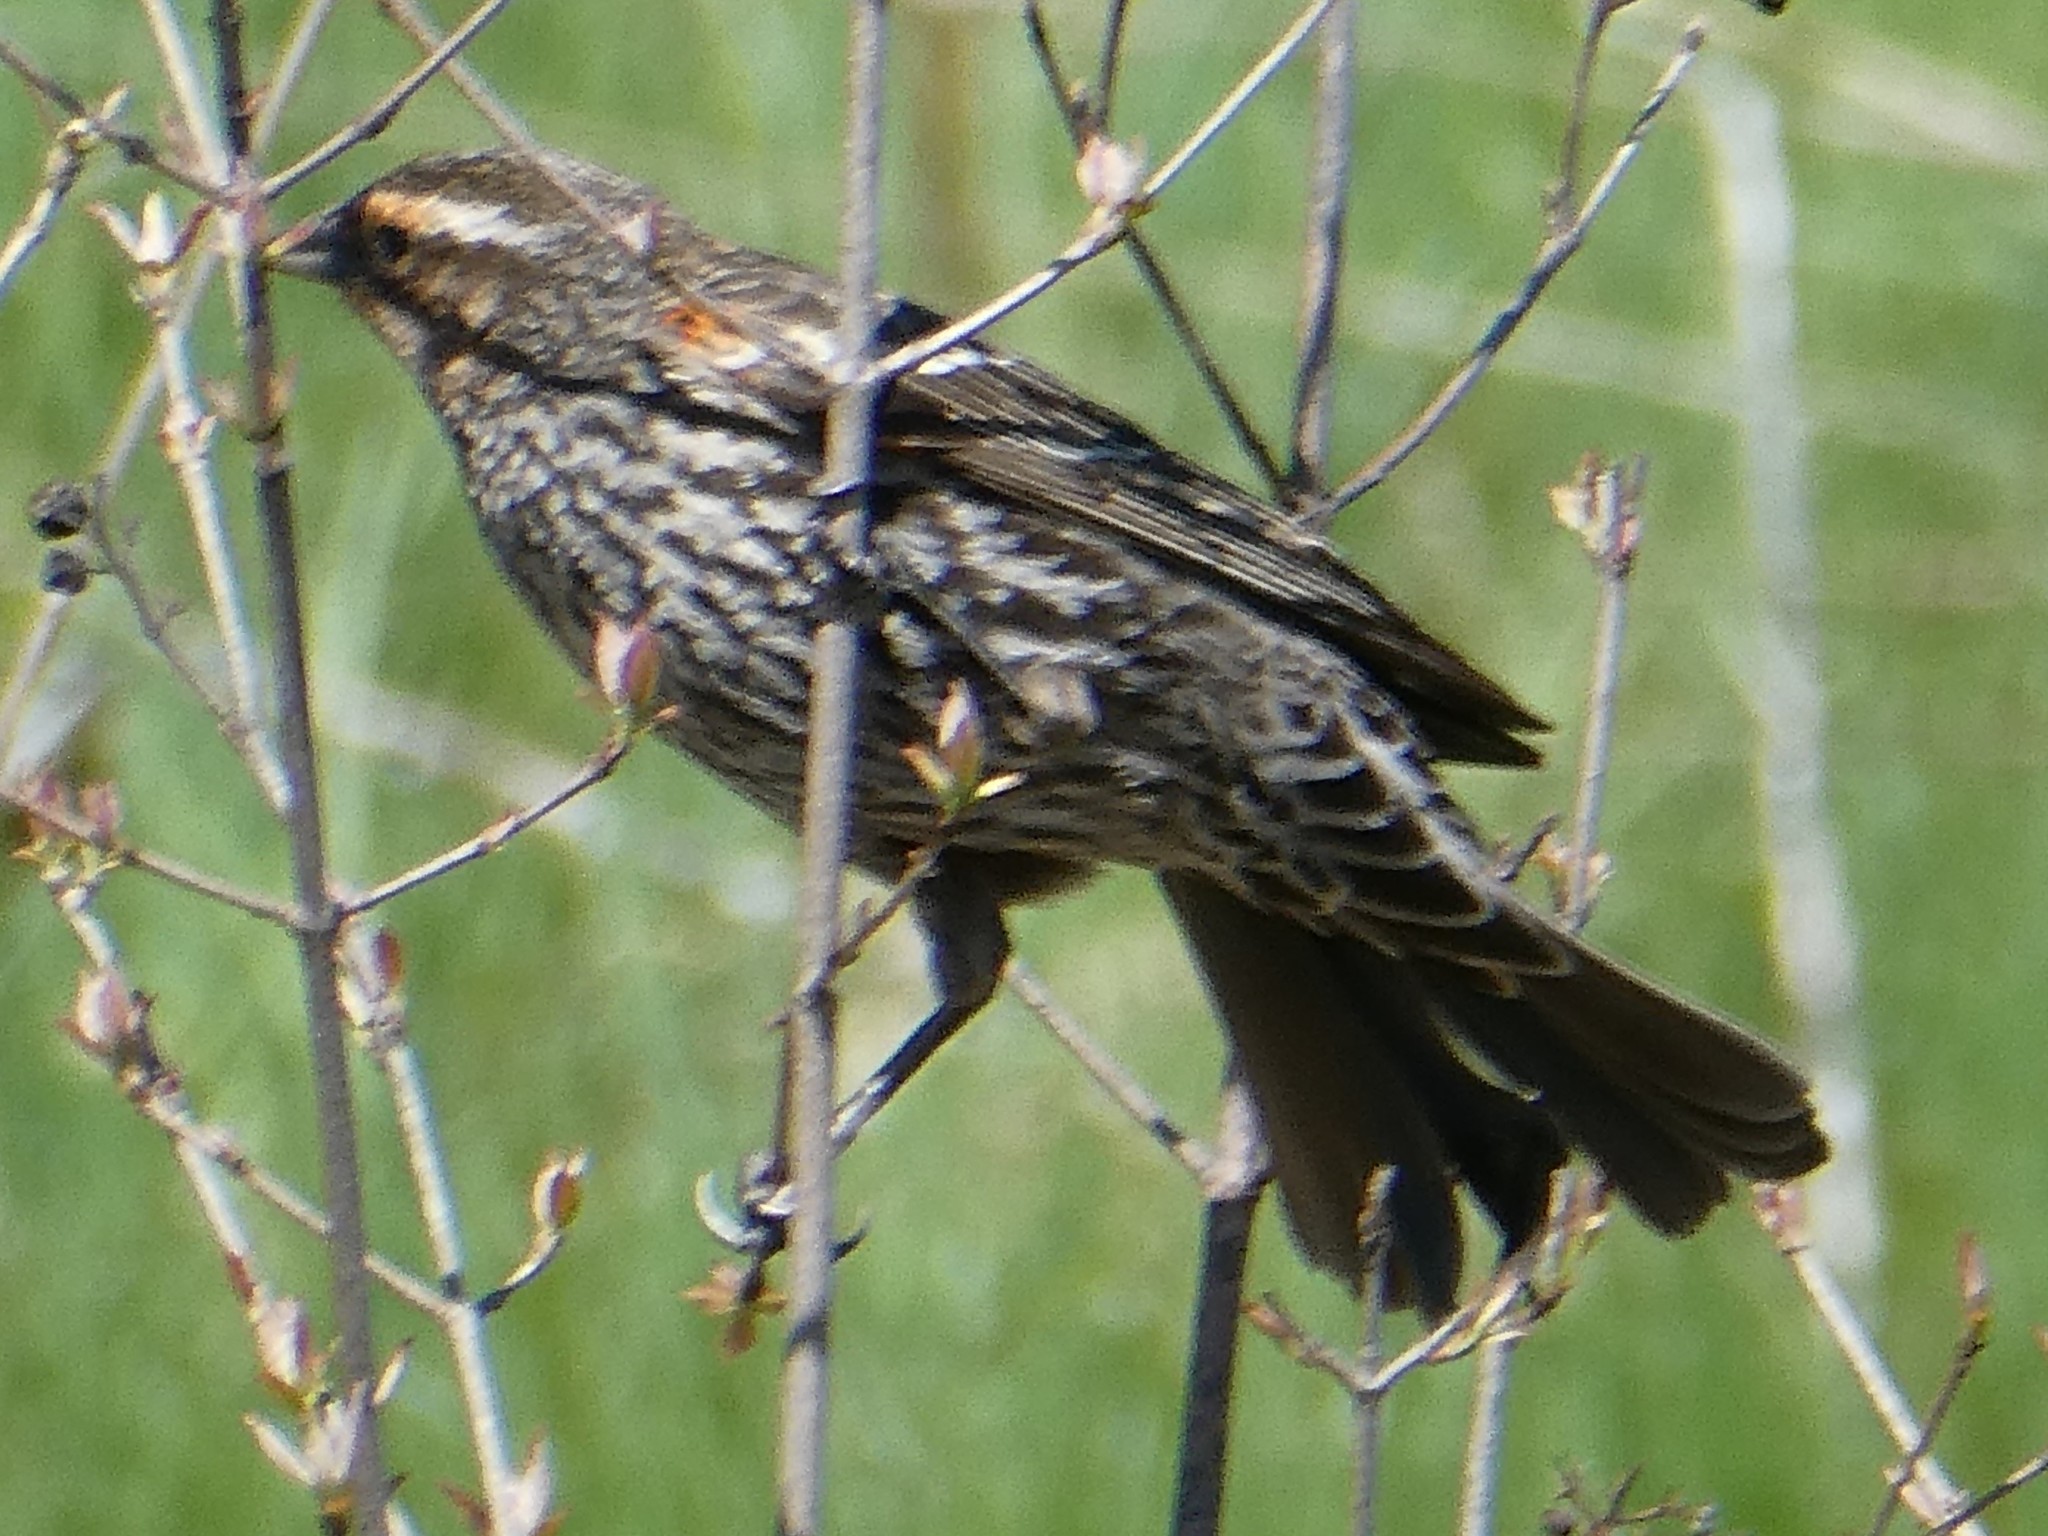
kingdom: Animalia
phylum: Chordata
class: Aves
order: Passeriformes
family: Icteridae
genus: Agelaius
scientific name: Agelaius phoeniceus
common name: Red-winged blackbird
